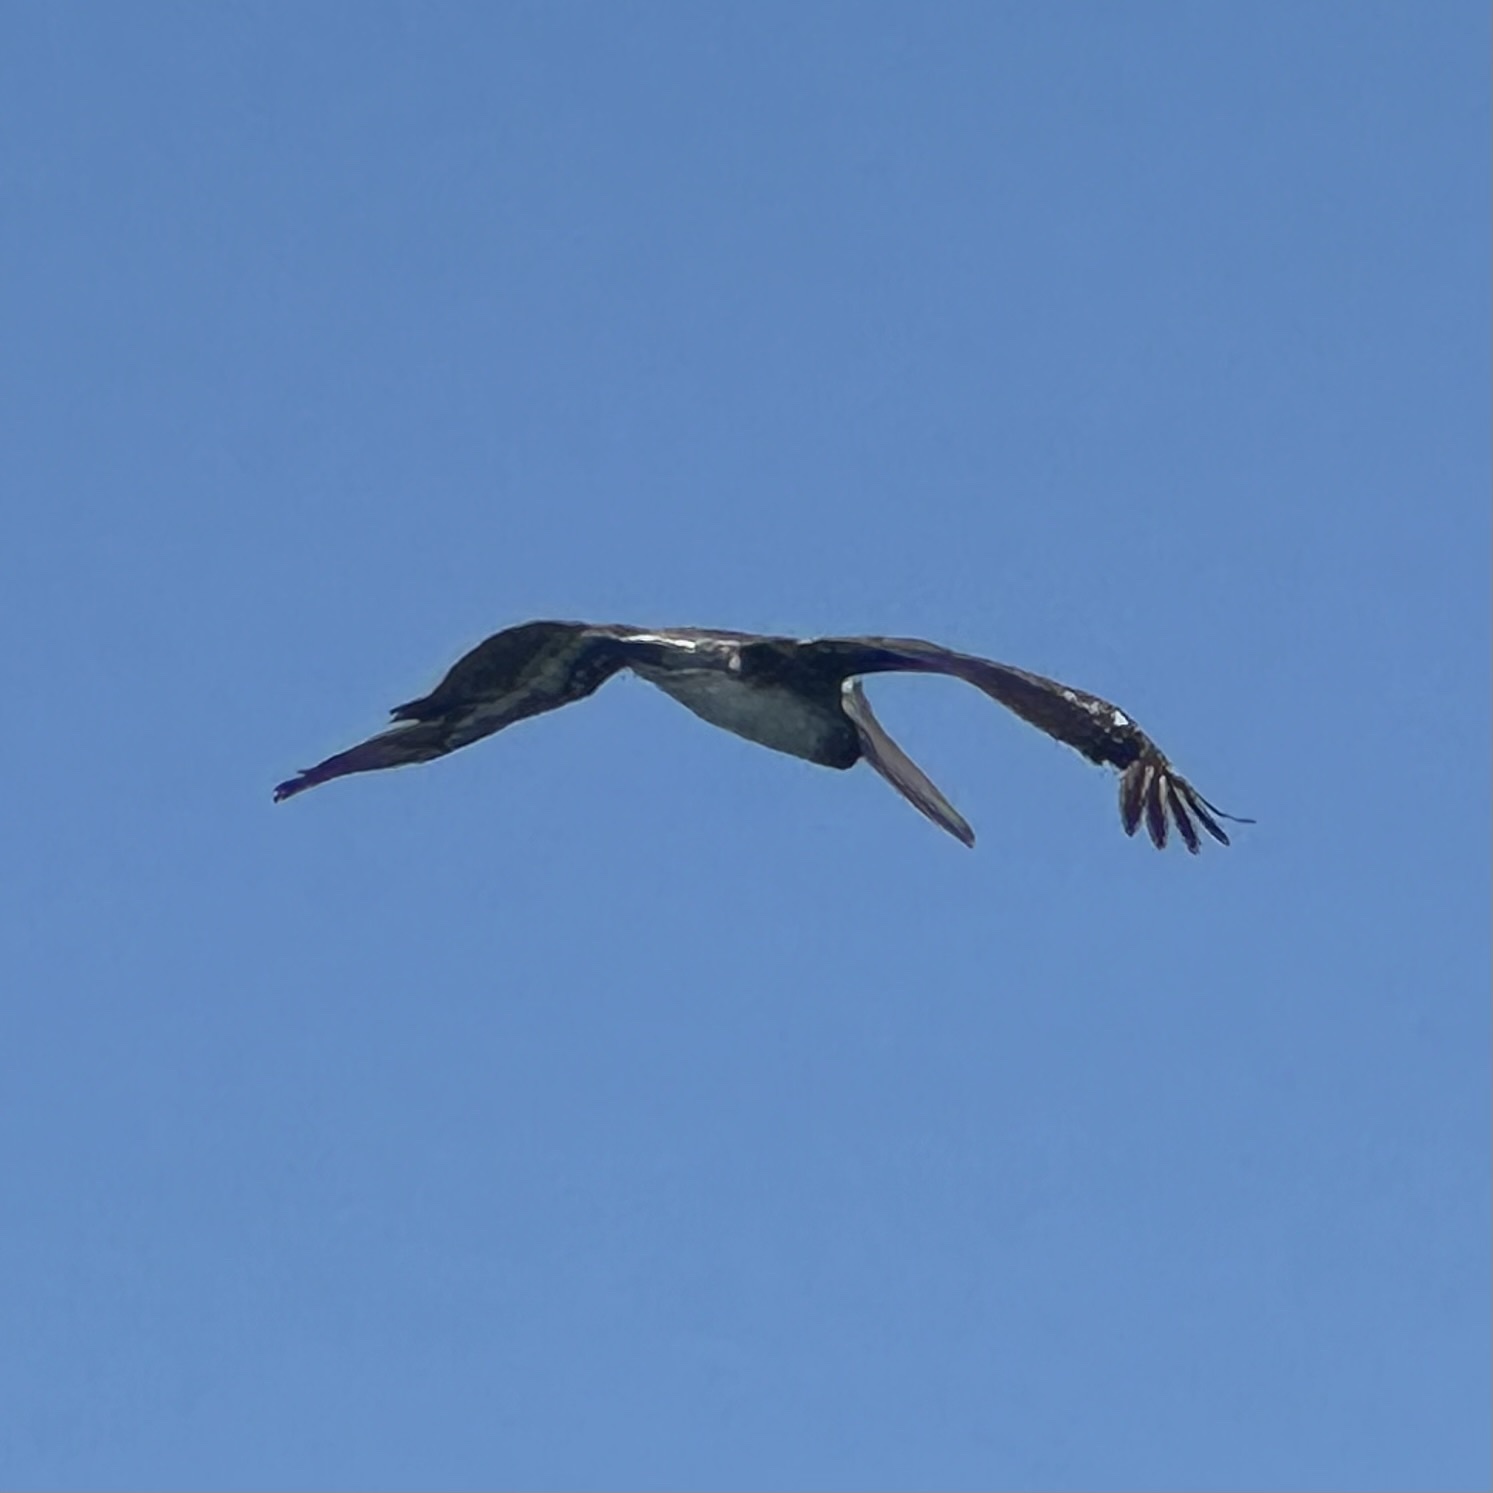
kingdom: Animalia
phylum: Chordata
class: Aves
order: Pelecaniformes
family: Pelecanidae
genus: Pelecanus
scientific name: Pelecanus occidentalis
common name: Brown pelican
